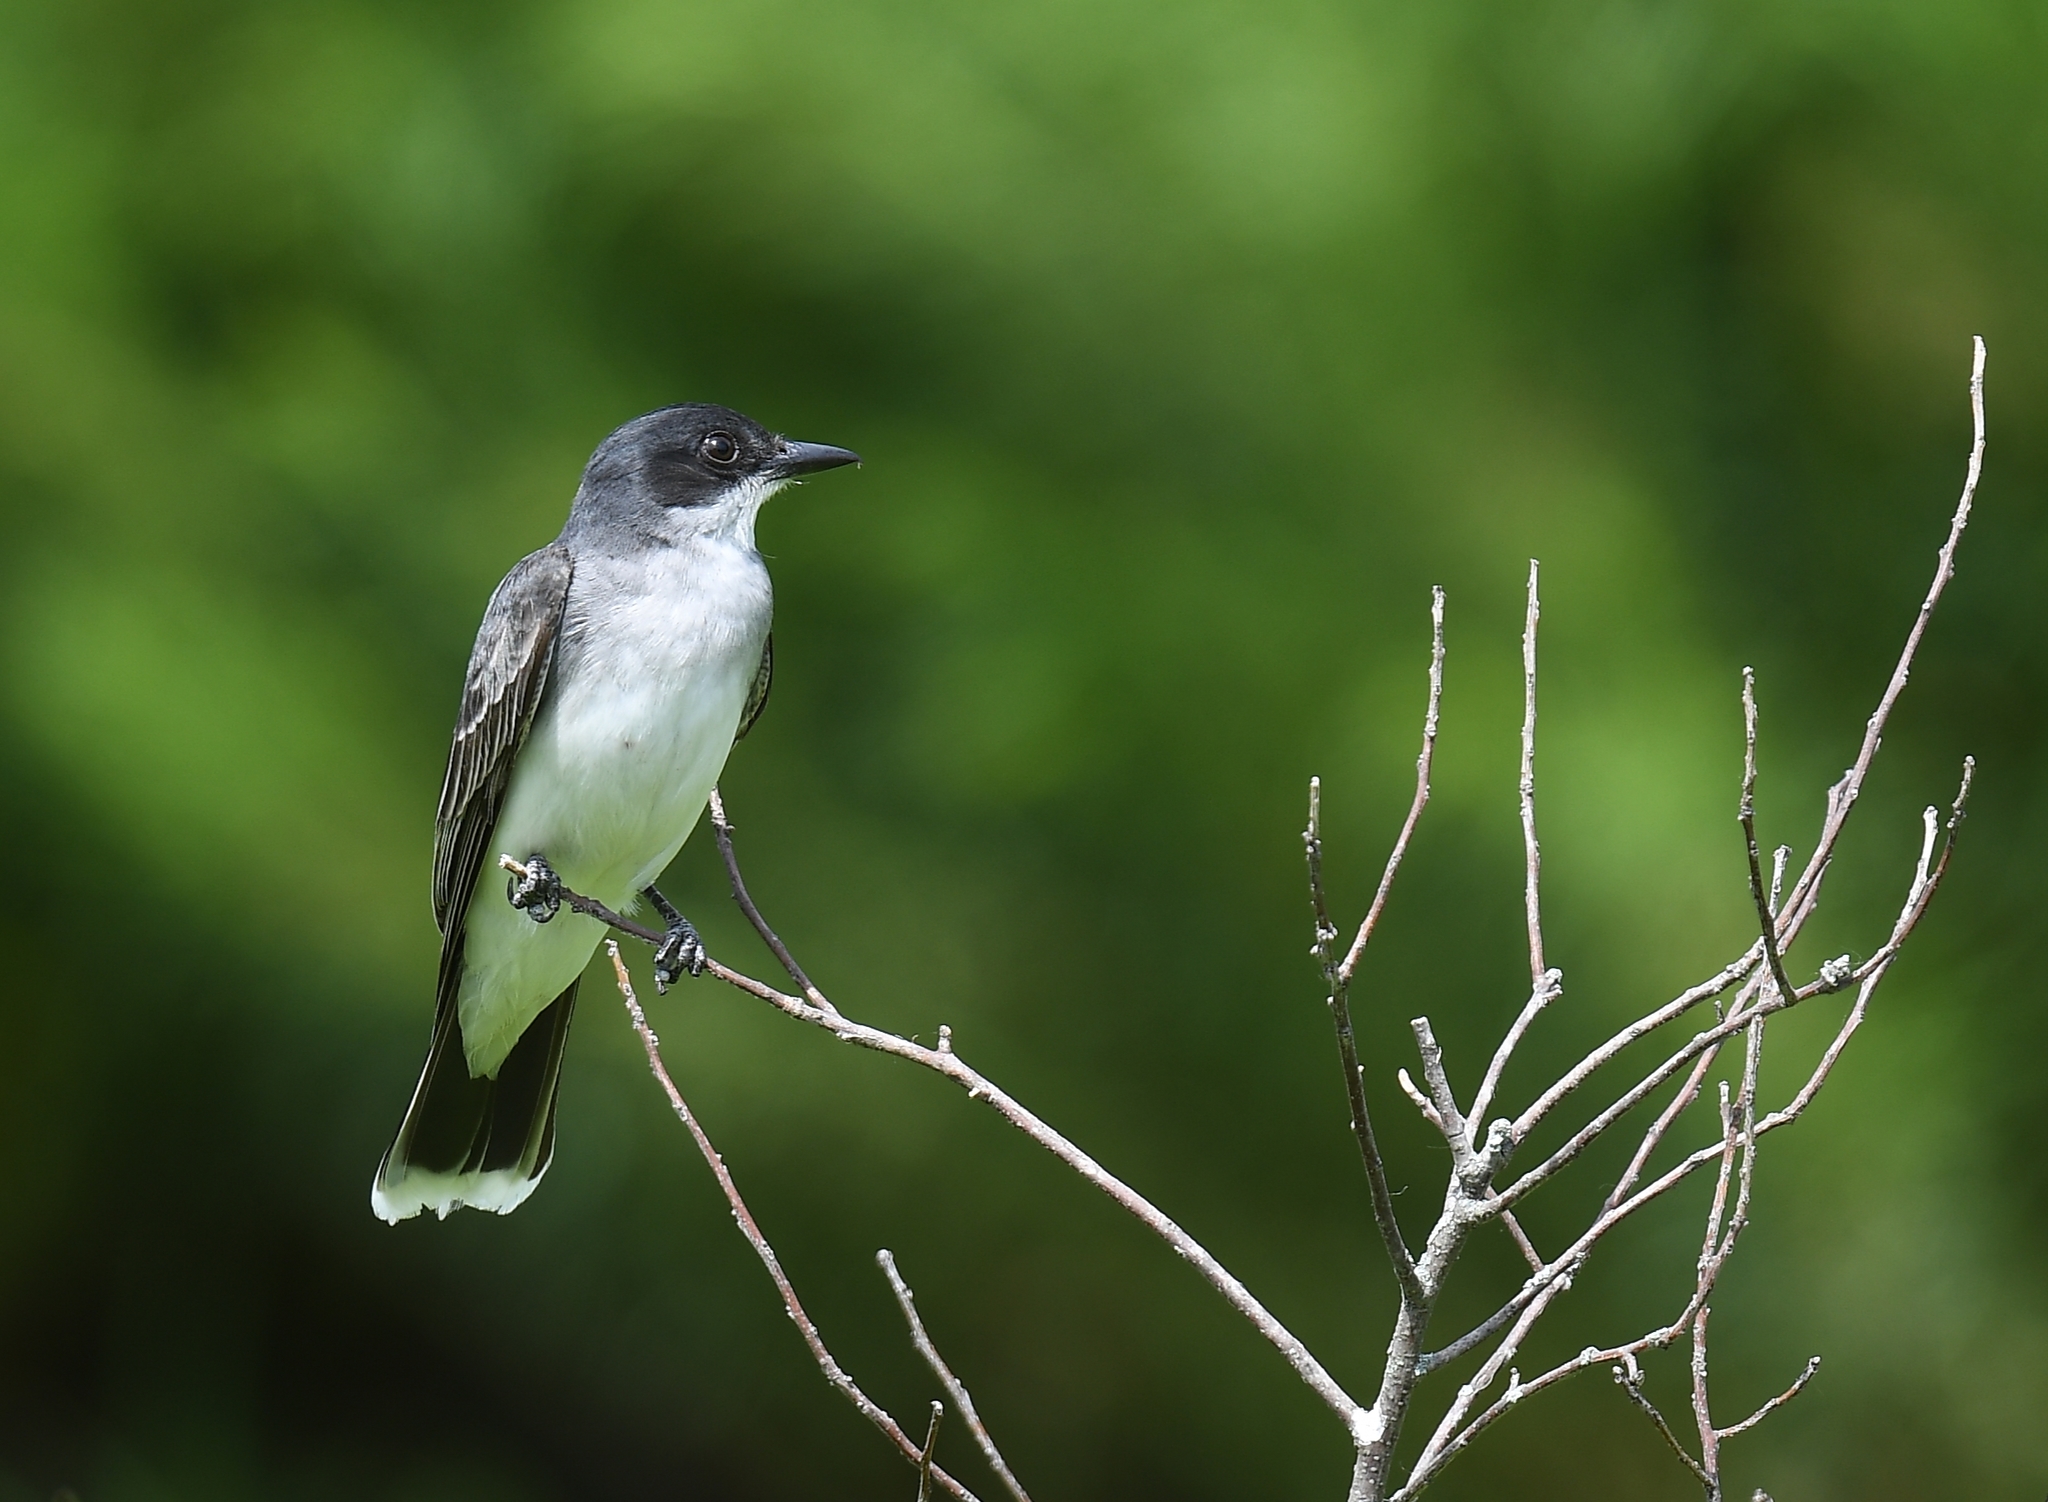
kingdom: Animalia
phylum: Chordata
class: Aves
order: Passeriformes
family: Tyrannidae
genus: Tyrannus
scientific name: Tyrannus tyrannus
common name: Eastern kingbird
